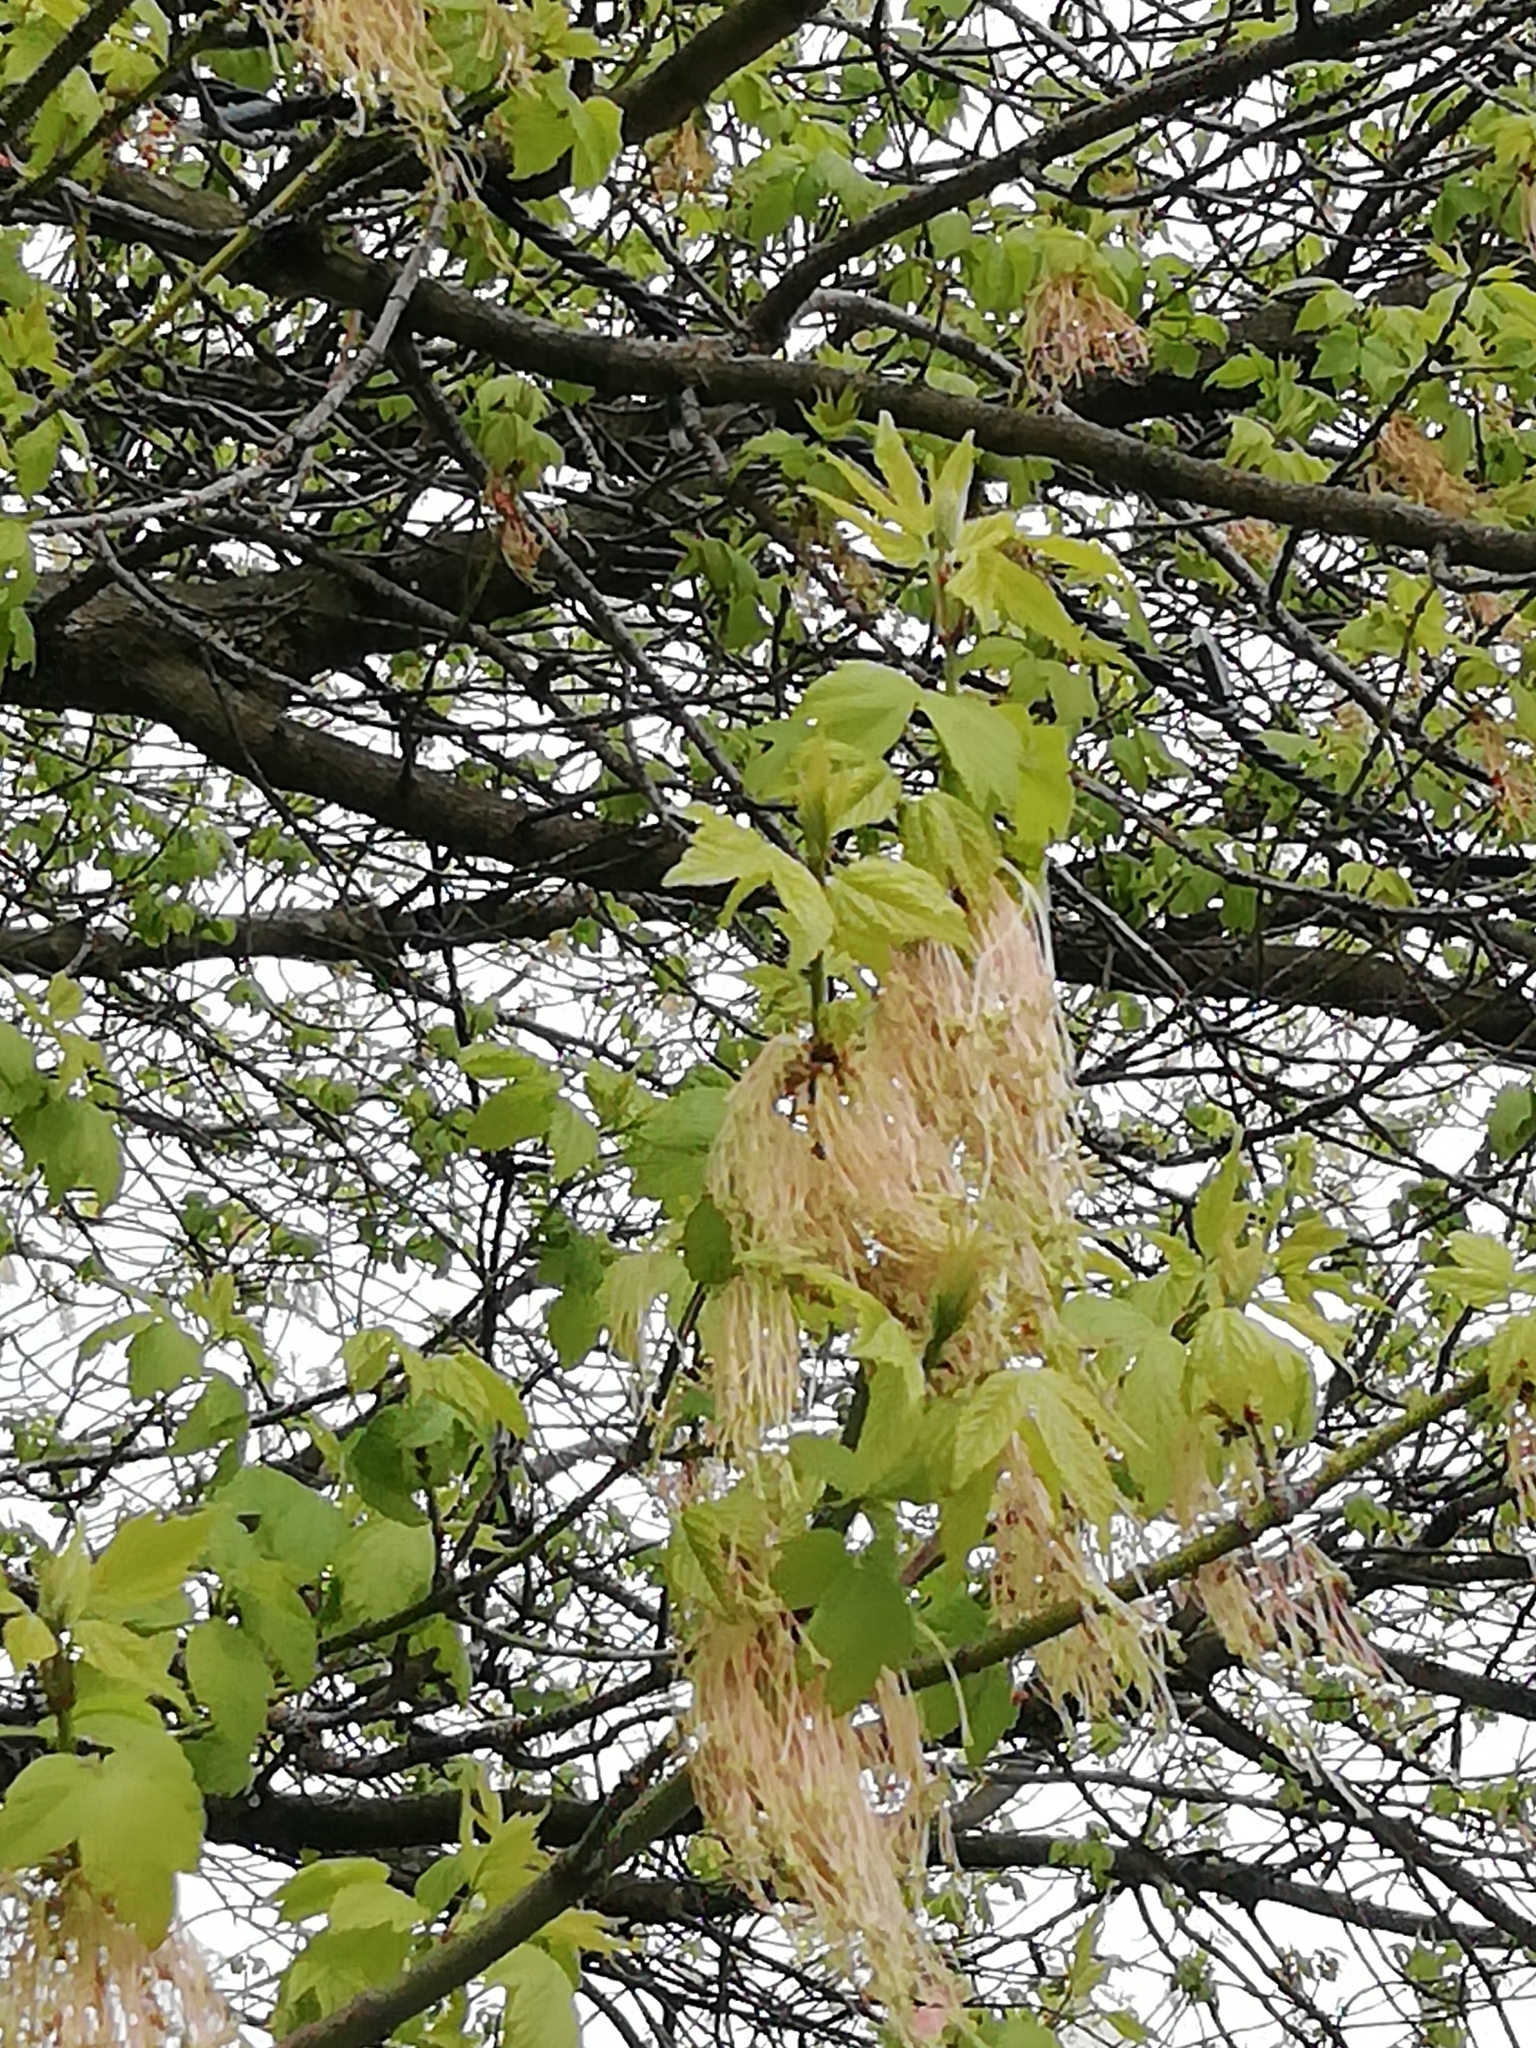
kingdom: Plantae
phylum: Tracheophyta
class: Magnoliopsida
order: Sapindales
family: Sapindaceae
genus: Acer
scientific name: Acer negundo
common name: Ashleaf maple
